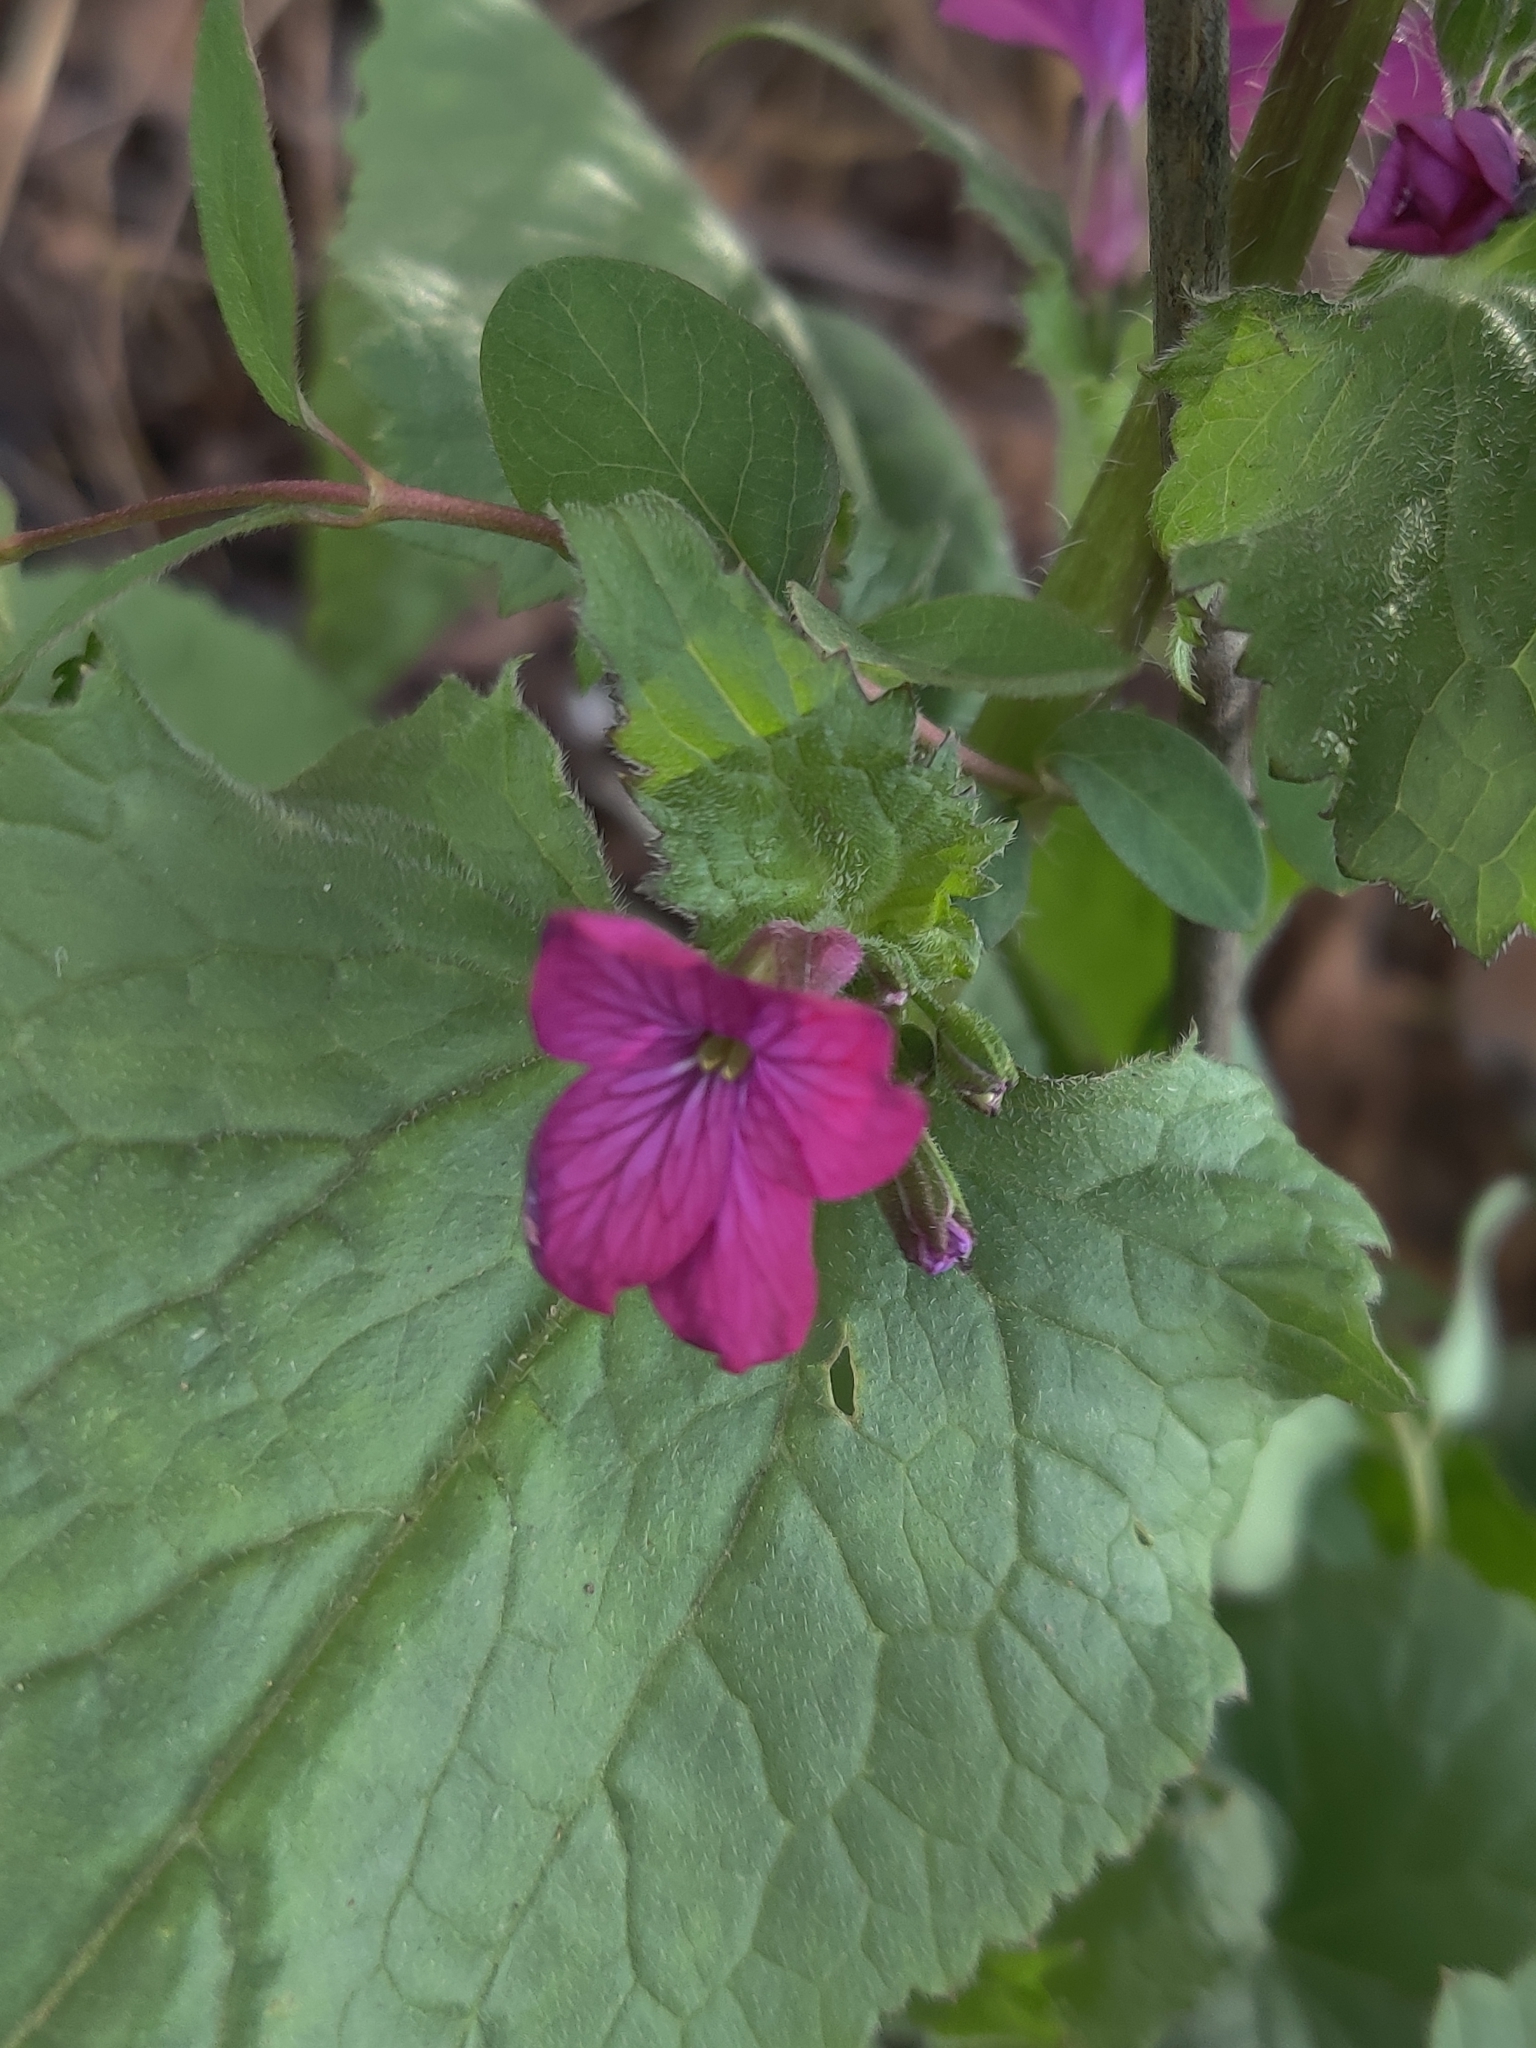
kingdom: Plantae
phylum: Tracheophyta
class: Magnoliopsida
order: Brassicales
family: Brassicaceae
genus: Lunaria
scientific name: Lunaria annua
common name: Honesty
